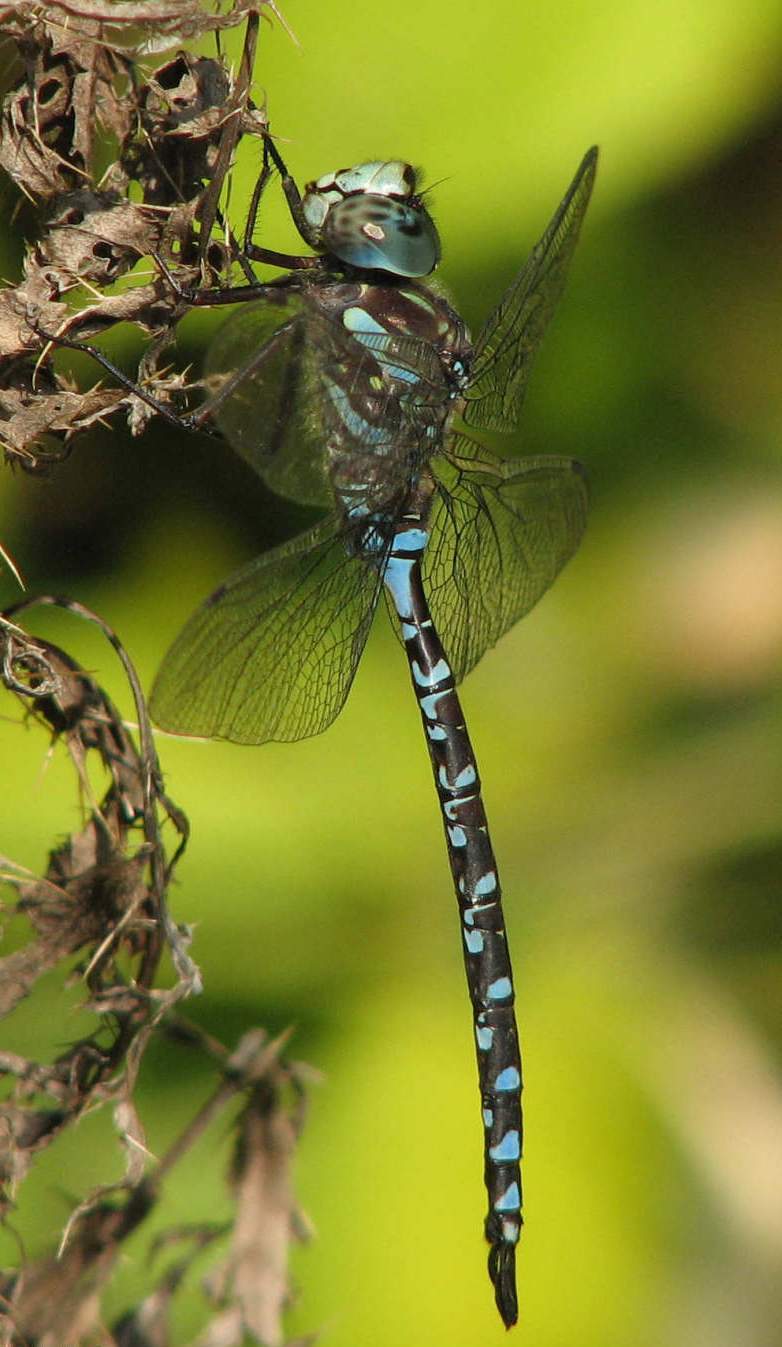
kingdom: Animalia
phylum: Arthropoda
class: Insecta
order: Odonata
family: Aeshnidae
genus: Aeshna
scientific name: Aeshna canadensis
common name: Canada darner
